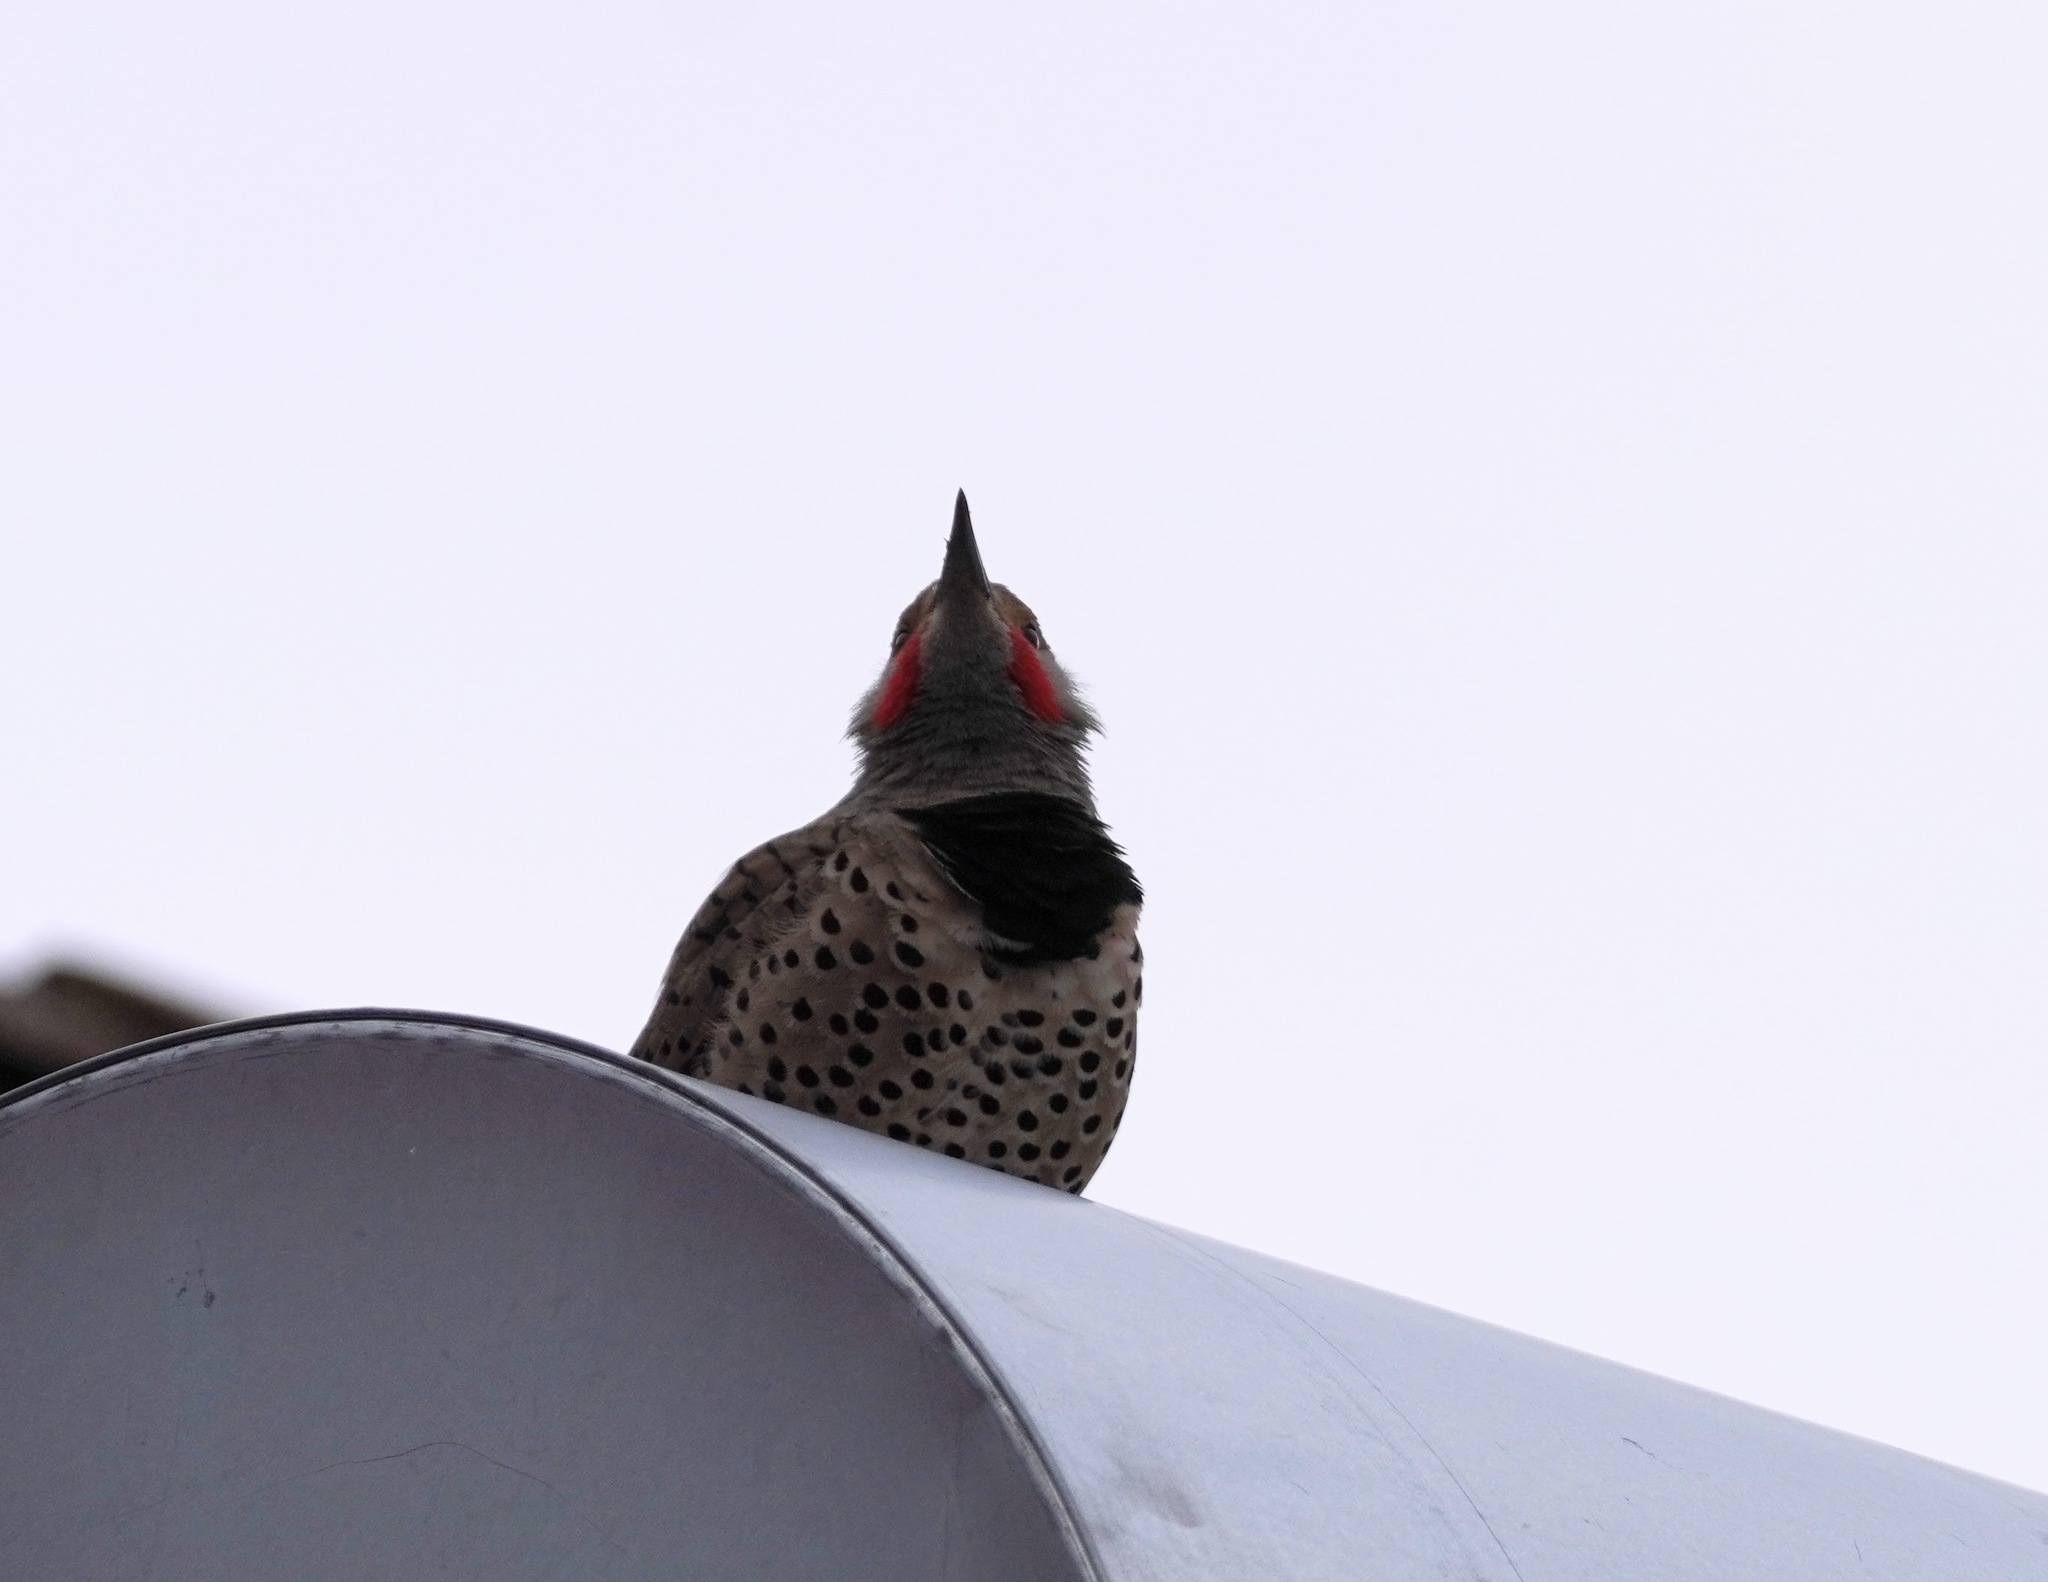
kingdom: Animalia
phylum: Chordata
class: Aves
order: Piciformes
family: Picidae
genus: Colaptes
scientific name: Colaptes auratus
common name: Northern flicker
